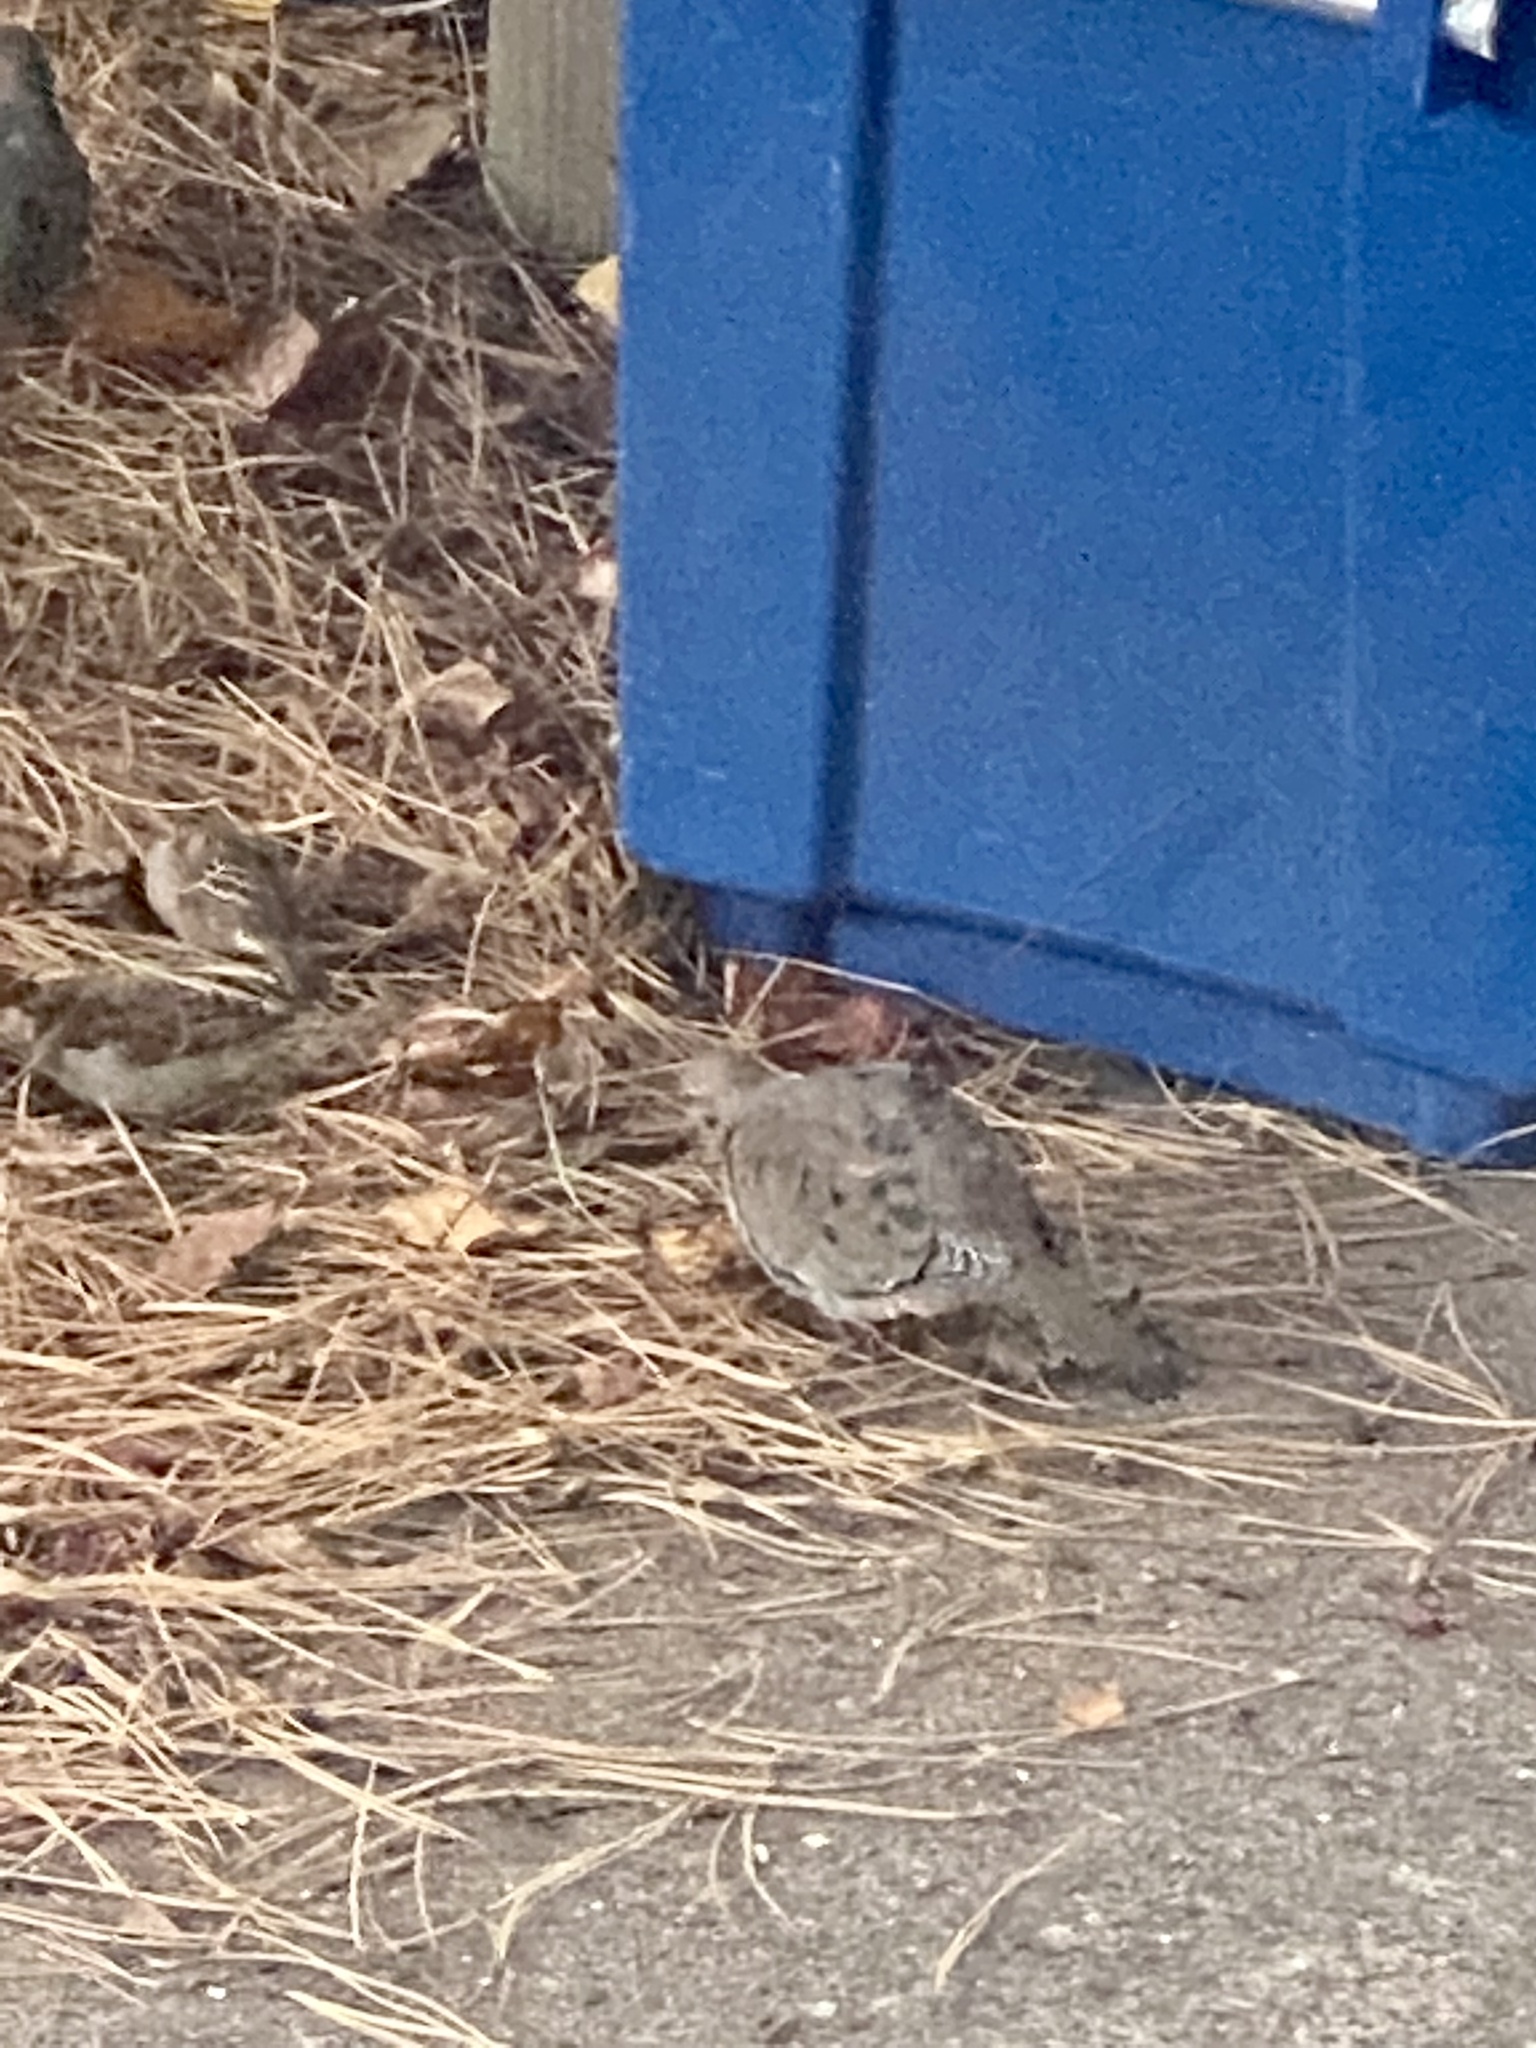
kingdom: Animalia
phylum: Chordata
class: Aves
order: Columbiformes
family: Columbidae
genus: Zenaida
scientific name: Zenaida macroura
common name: Mourning dove
